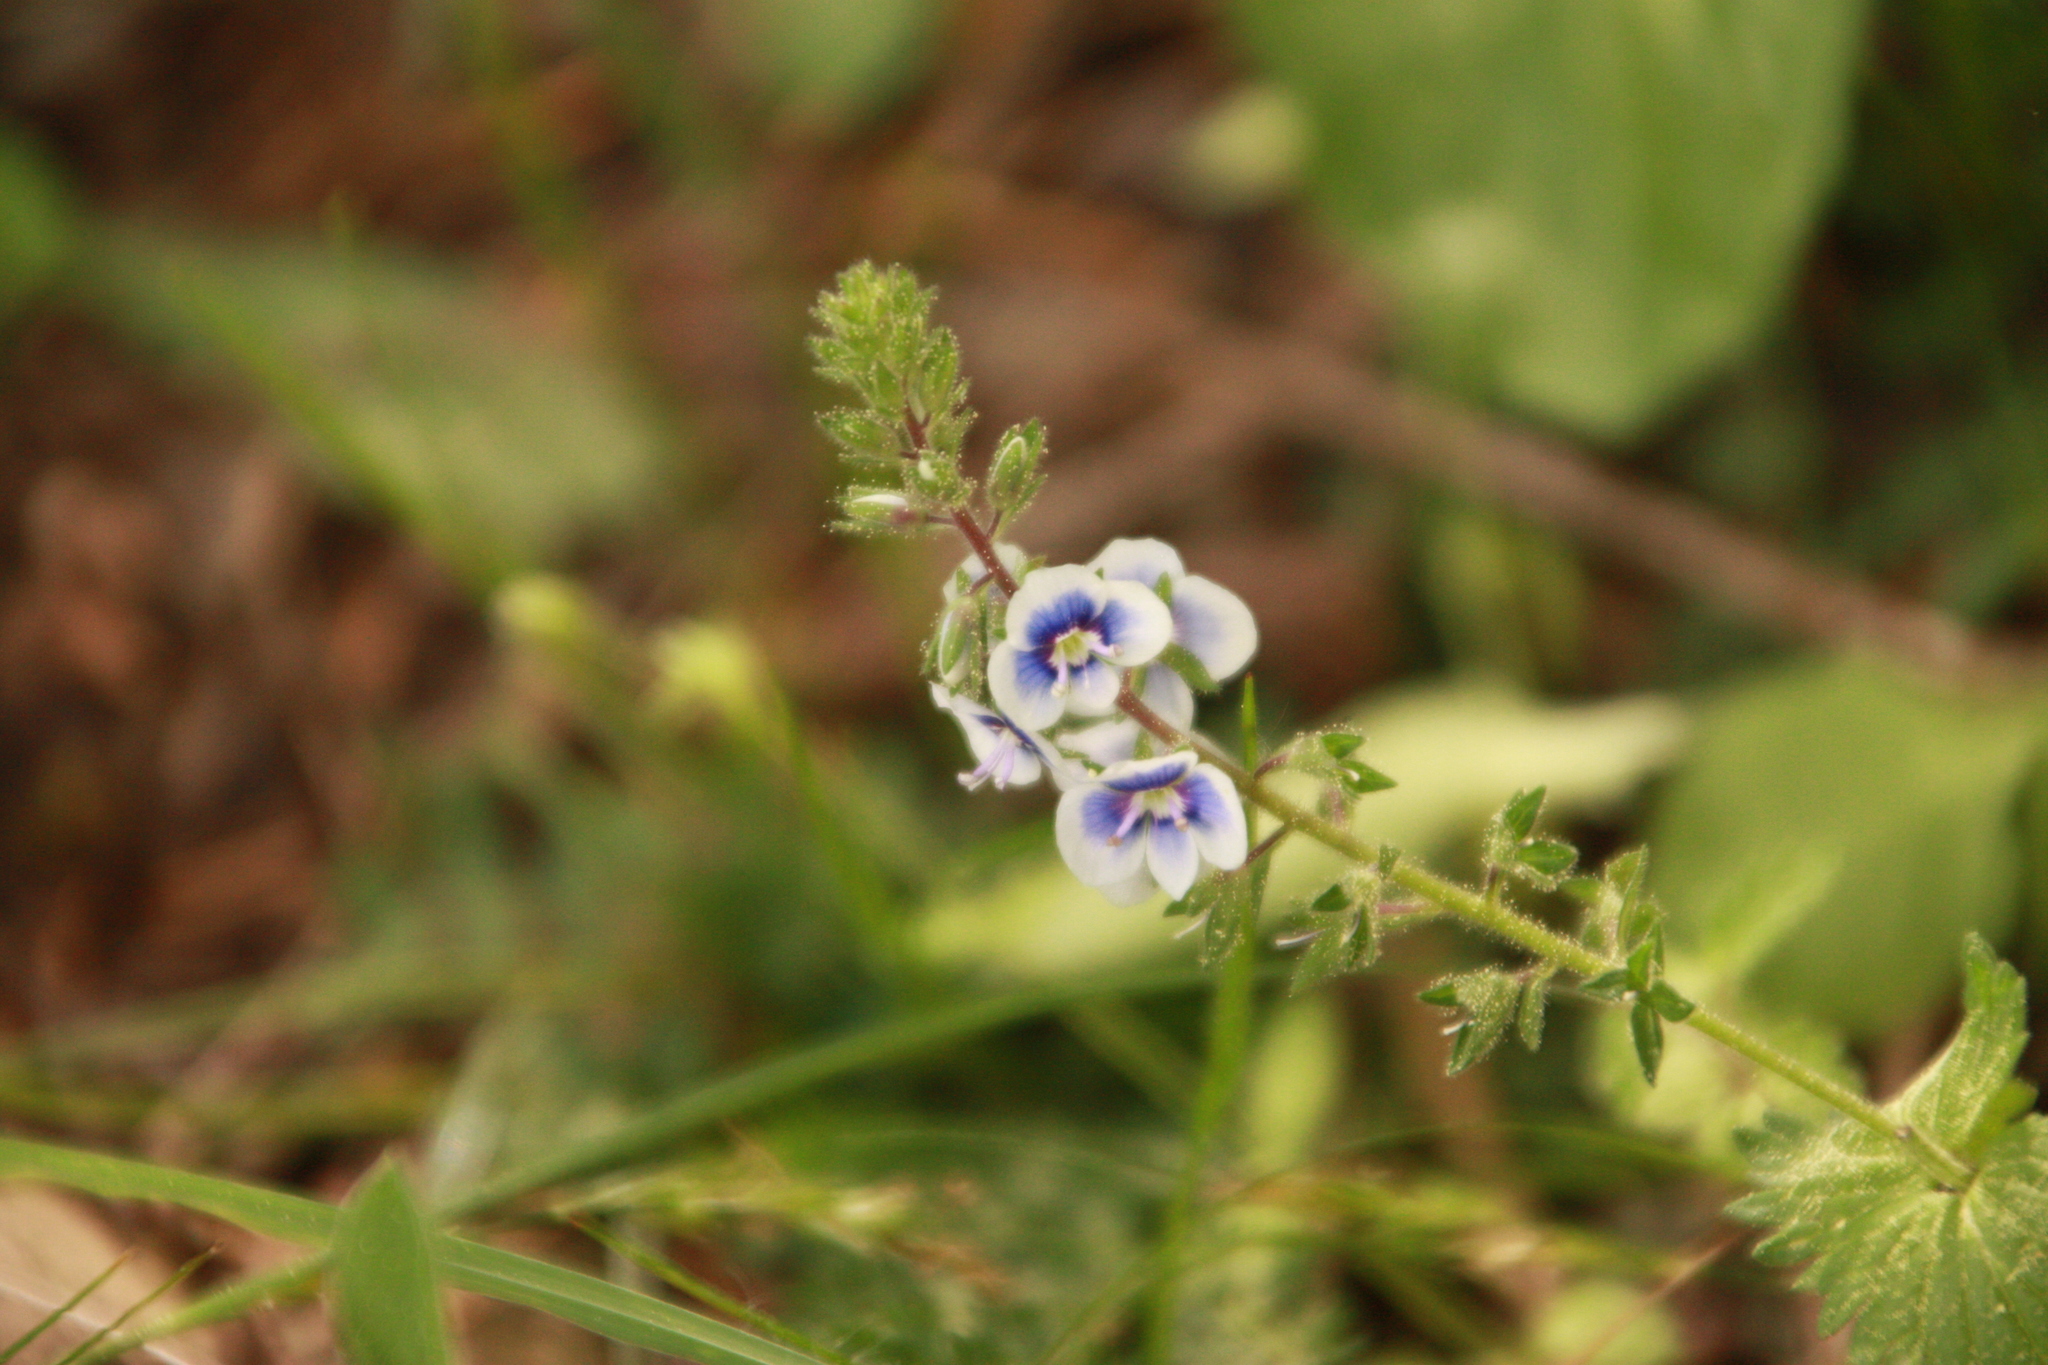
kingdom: Plantae
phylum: Tracheophyta
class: Magnoliopsida
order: Lamiales
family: Plantaginaceae
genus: Veronica
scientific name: Veronica chamaedrys
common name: Germander speedwell
